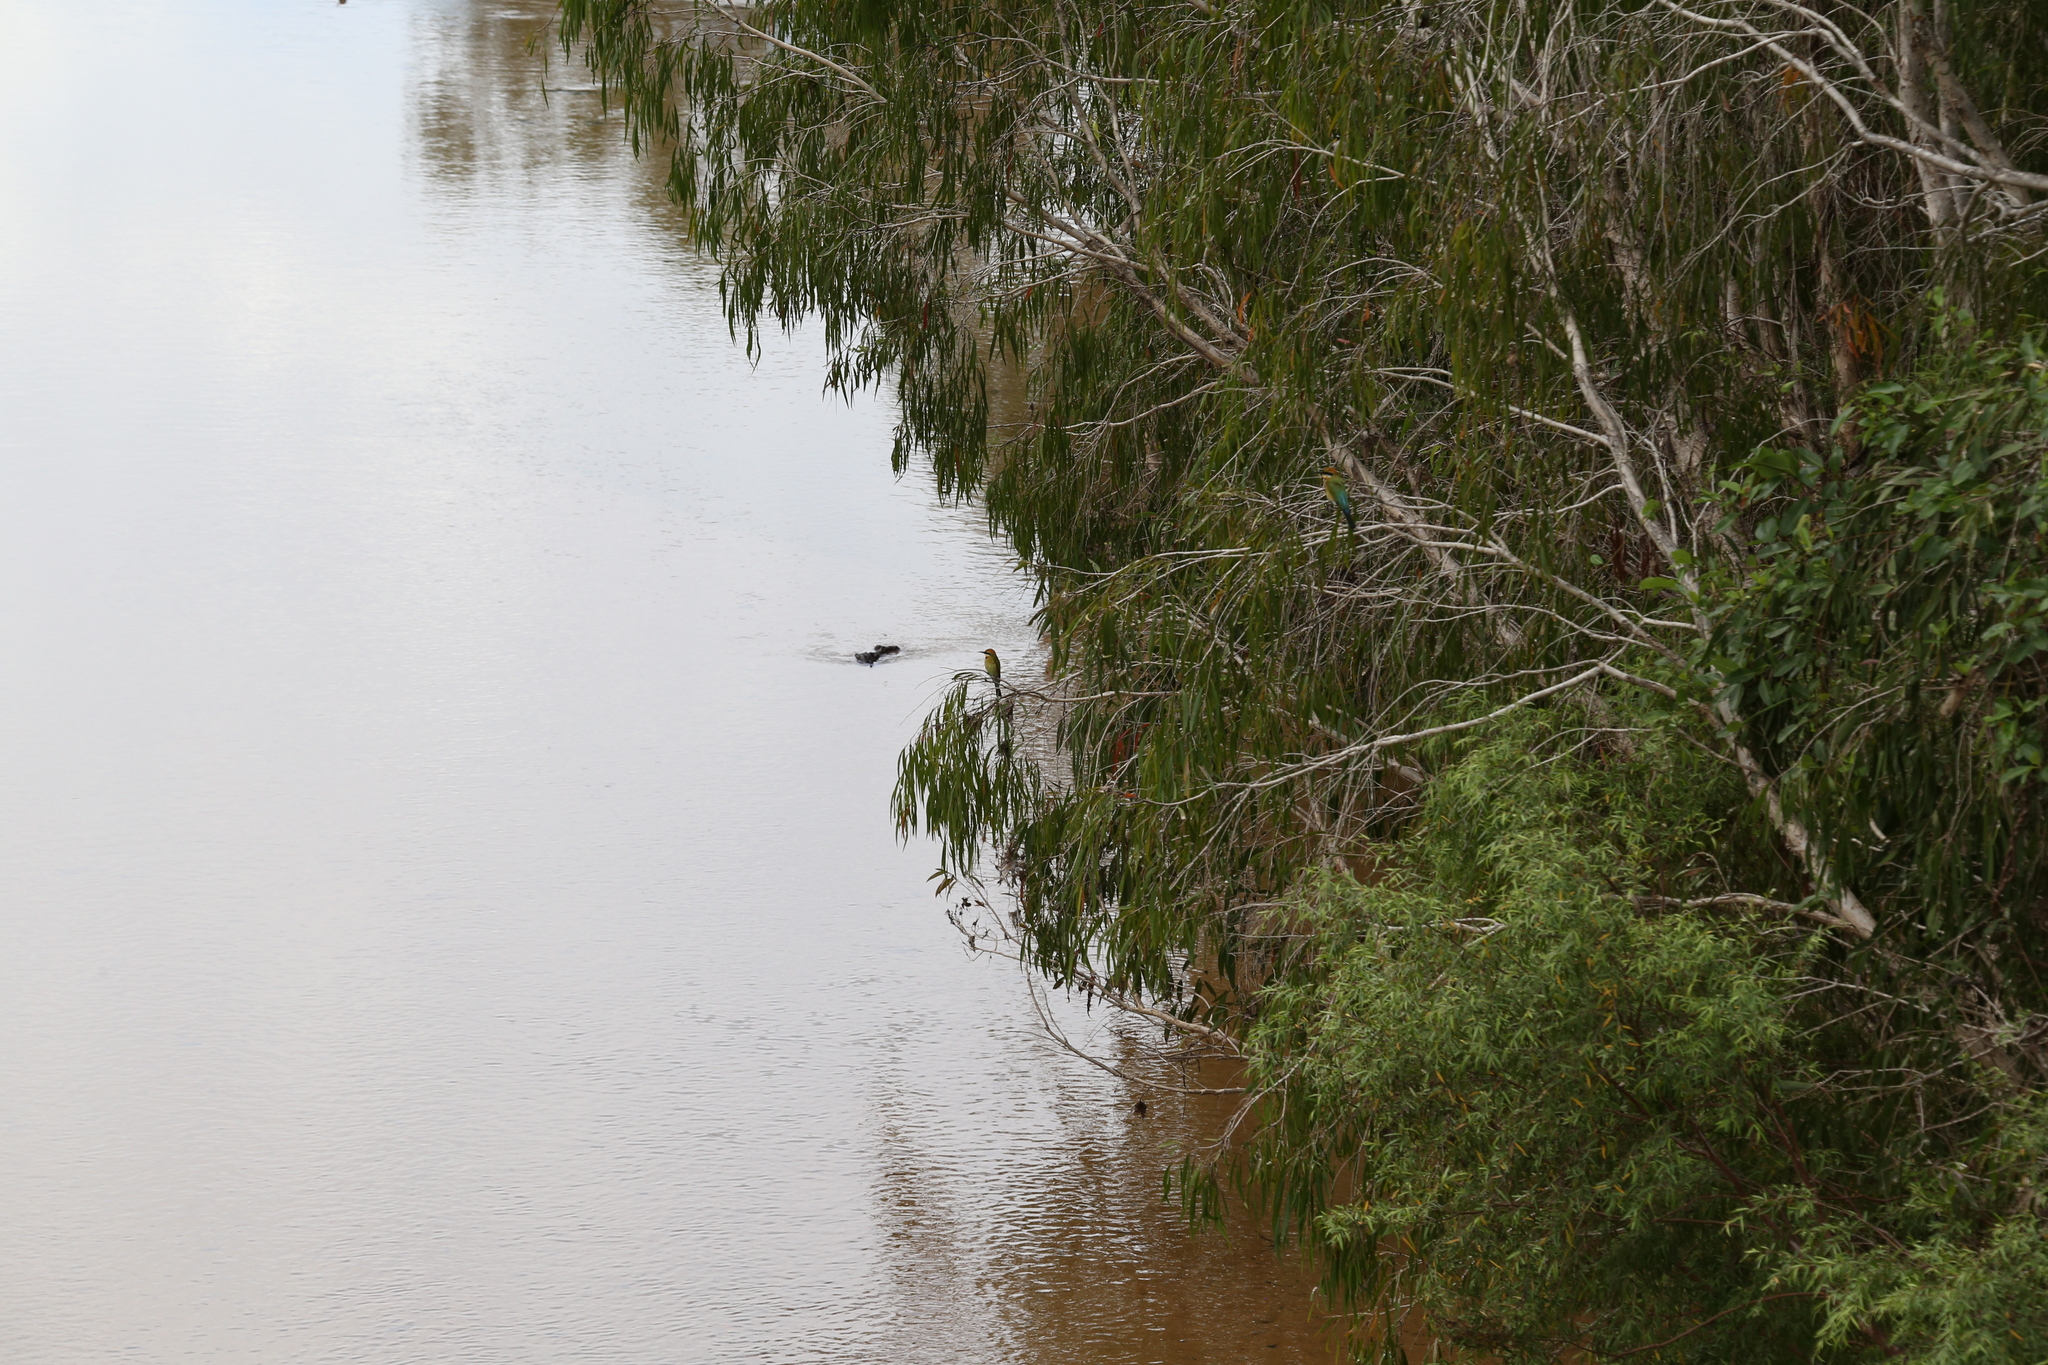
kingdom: Animalia
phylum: Chordata
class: Aves
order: Coraciiformes
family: Meropidae
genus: Merops
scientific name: Merops ornatus
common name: Rainbow bee-eater
